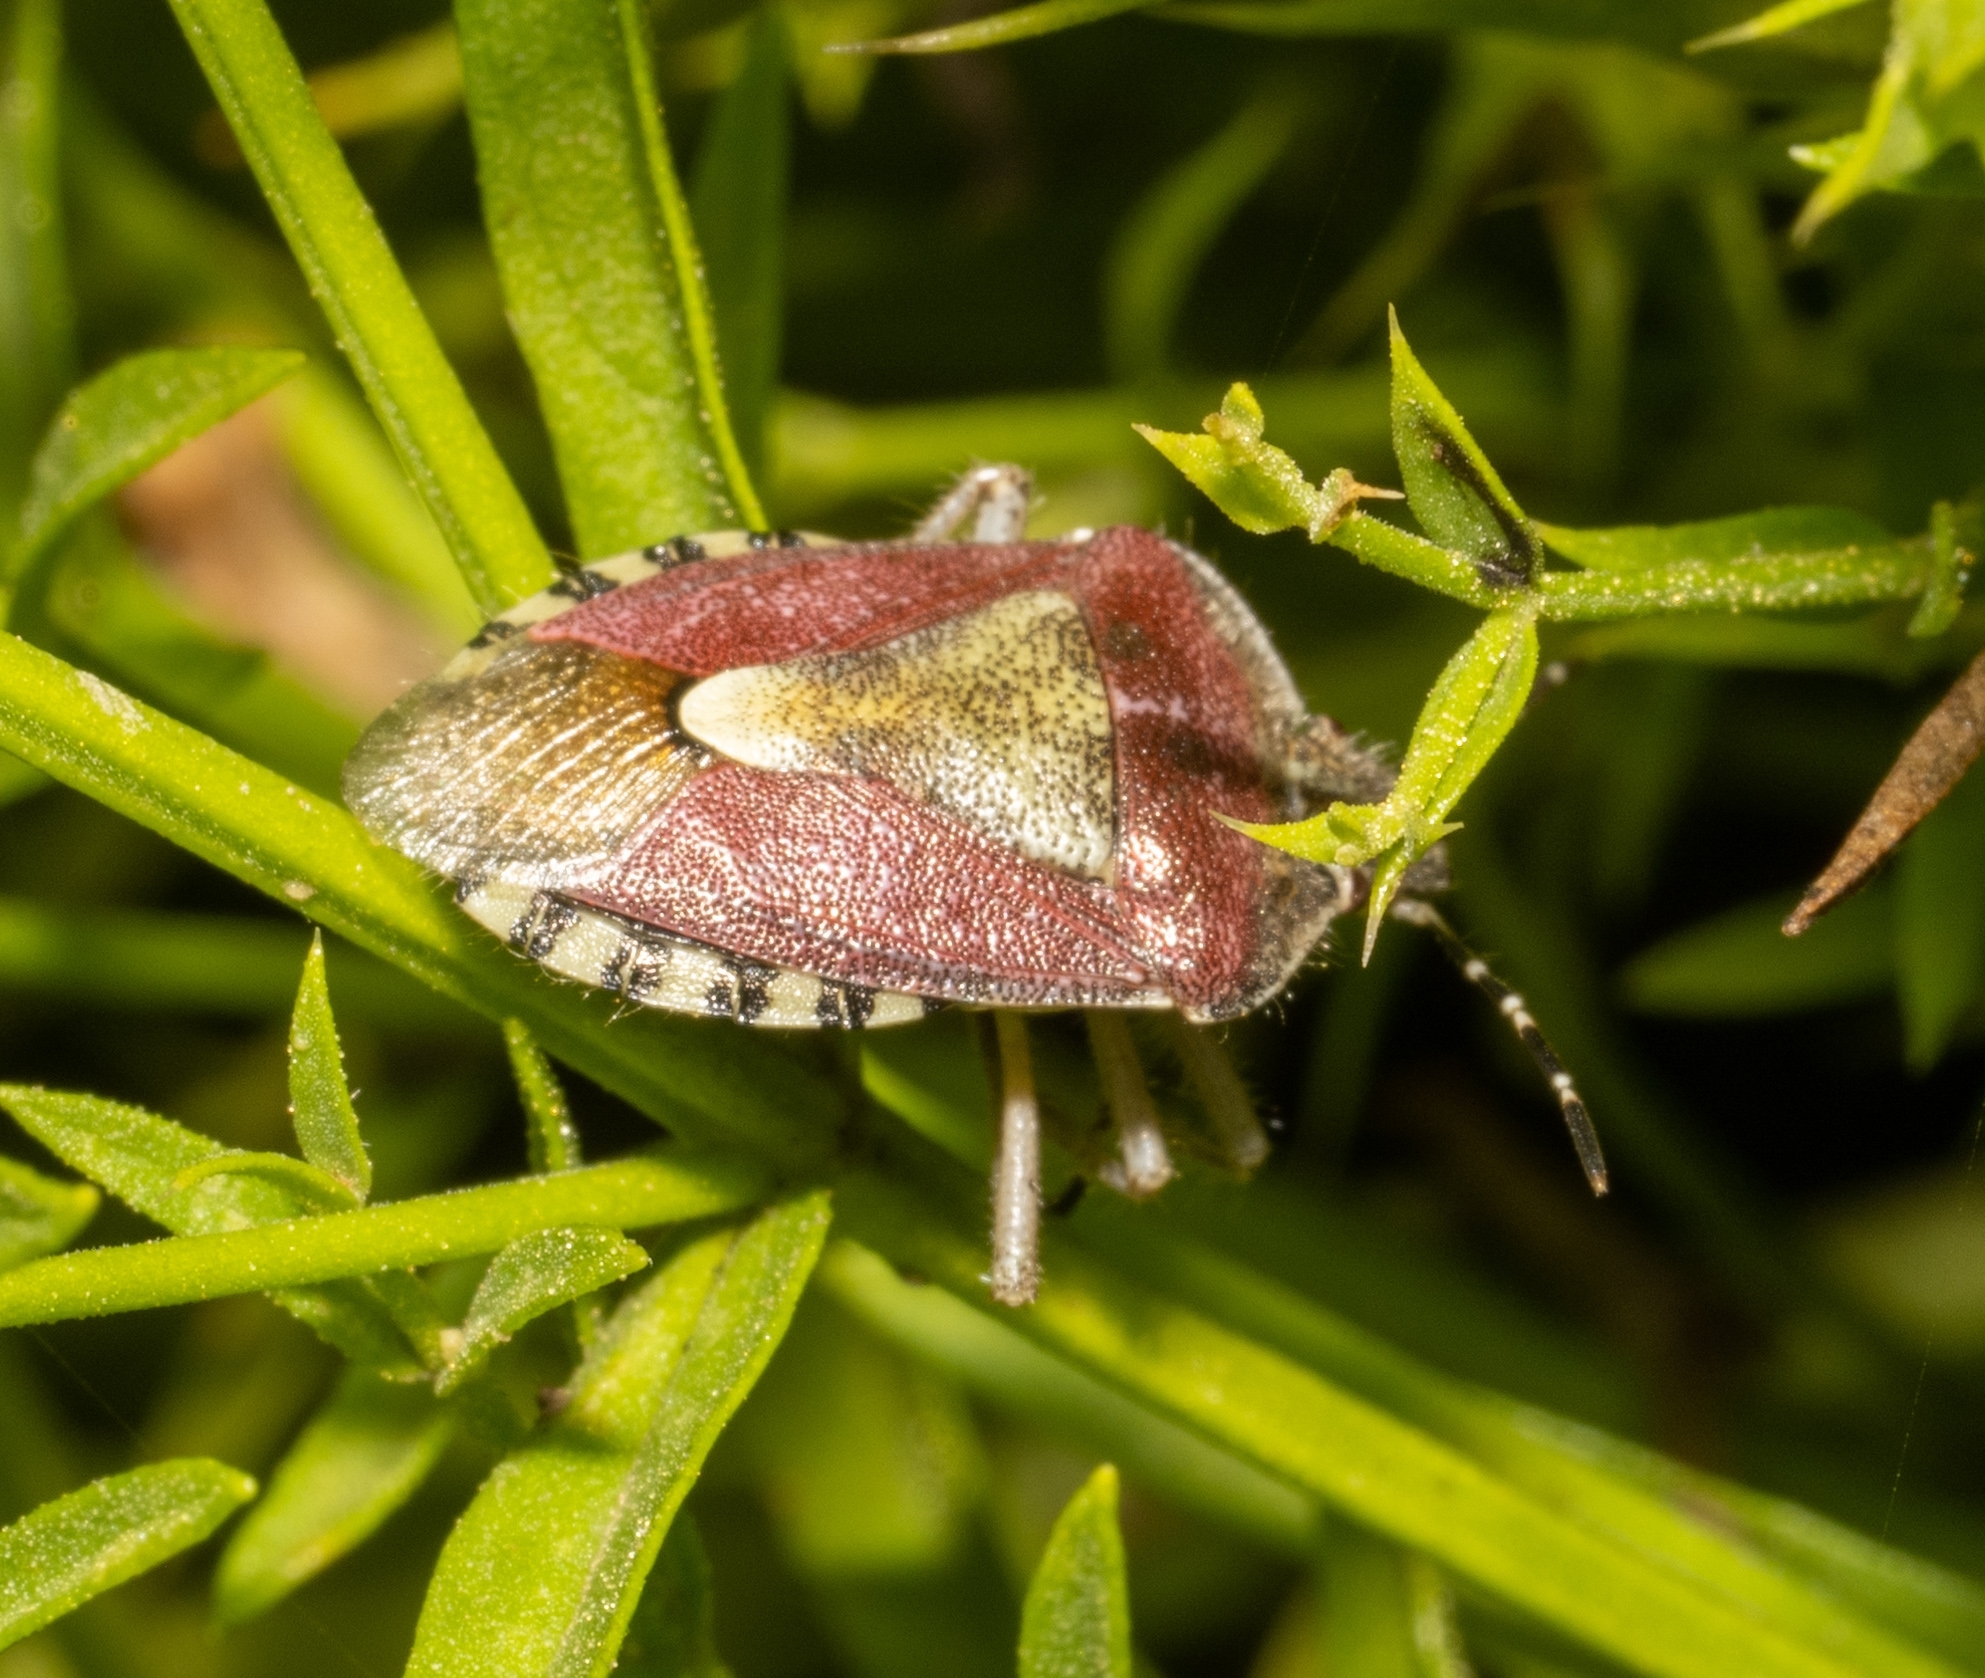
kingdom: Animalia
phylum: Arthropoda
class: Insecta
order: Hemiptera
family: Pentatomidae
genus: Dolycoris
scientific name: Dolycoris baccarum
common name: Sloe bug
